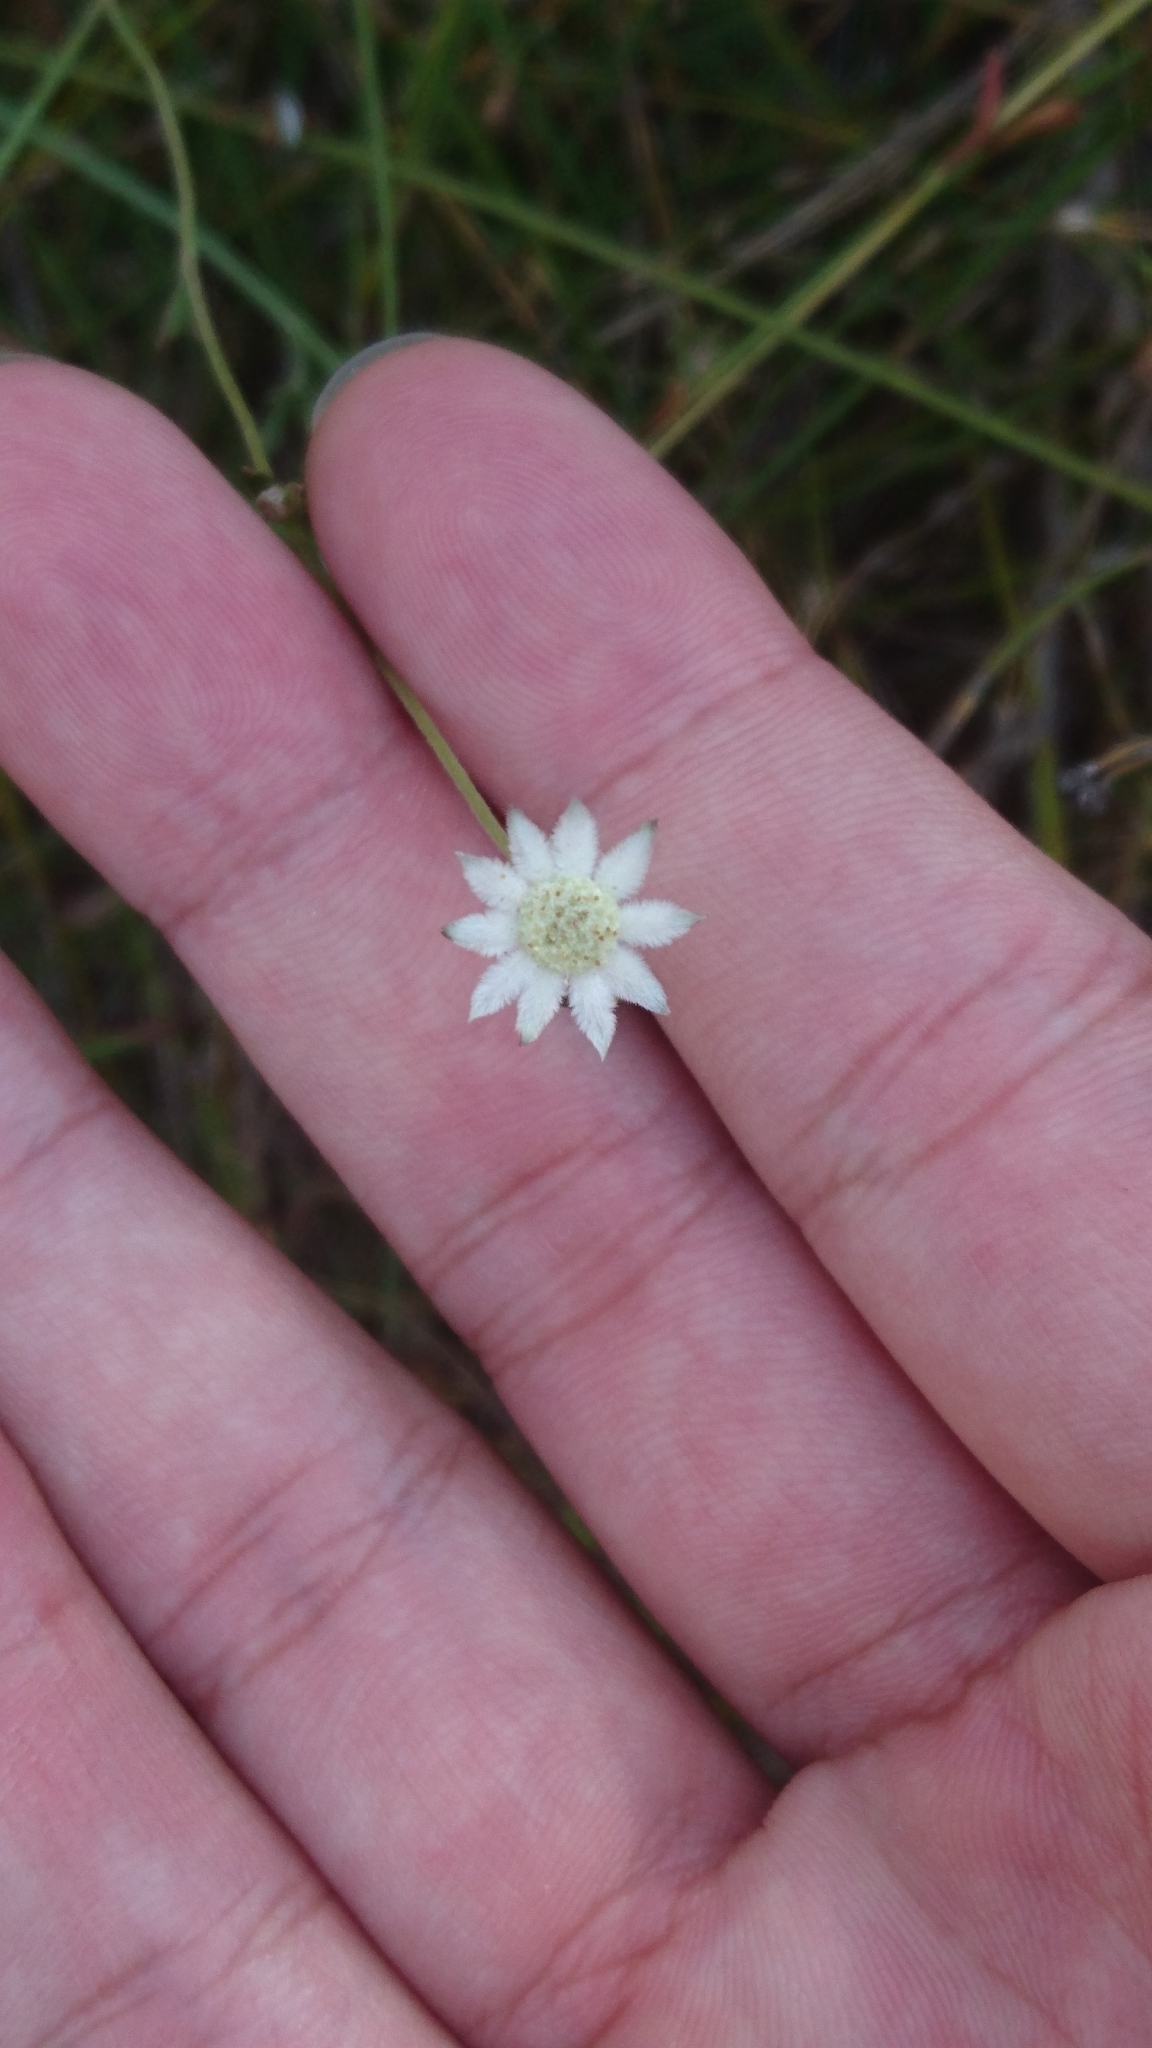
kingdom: Plantae
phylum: Tracheophyta
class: Magnoliopsida
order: Apiales
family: Apiaceae
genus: Actinotus
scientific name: Actinotus minor
